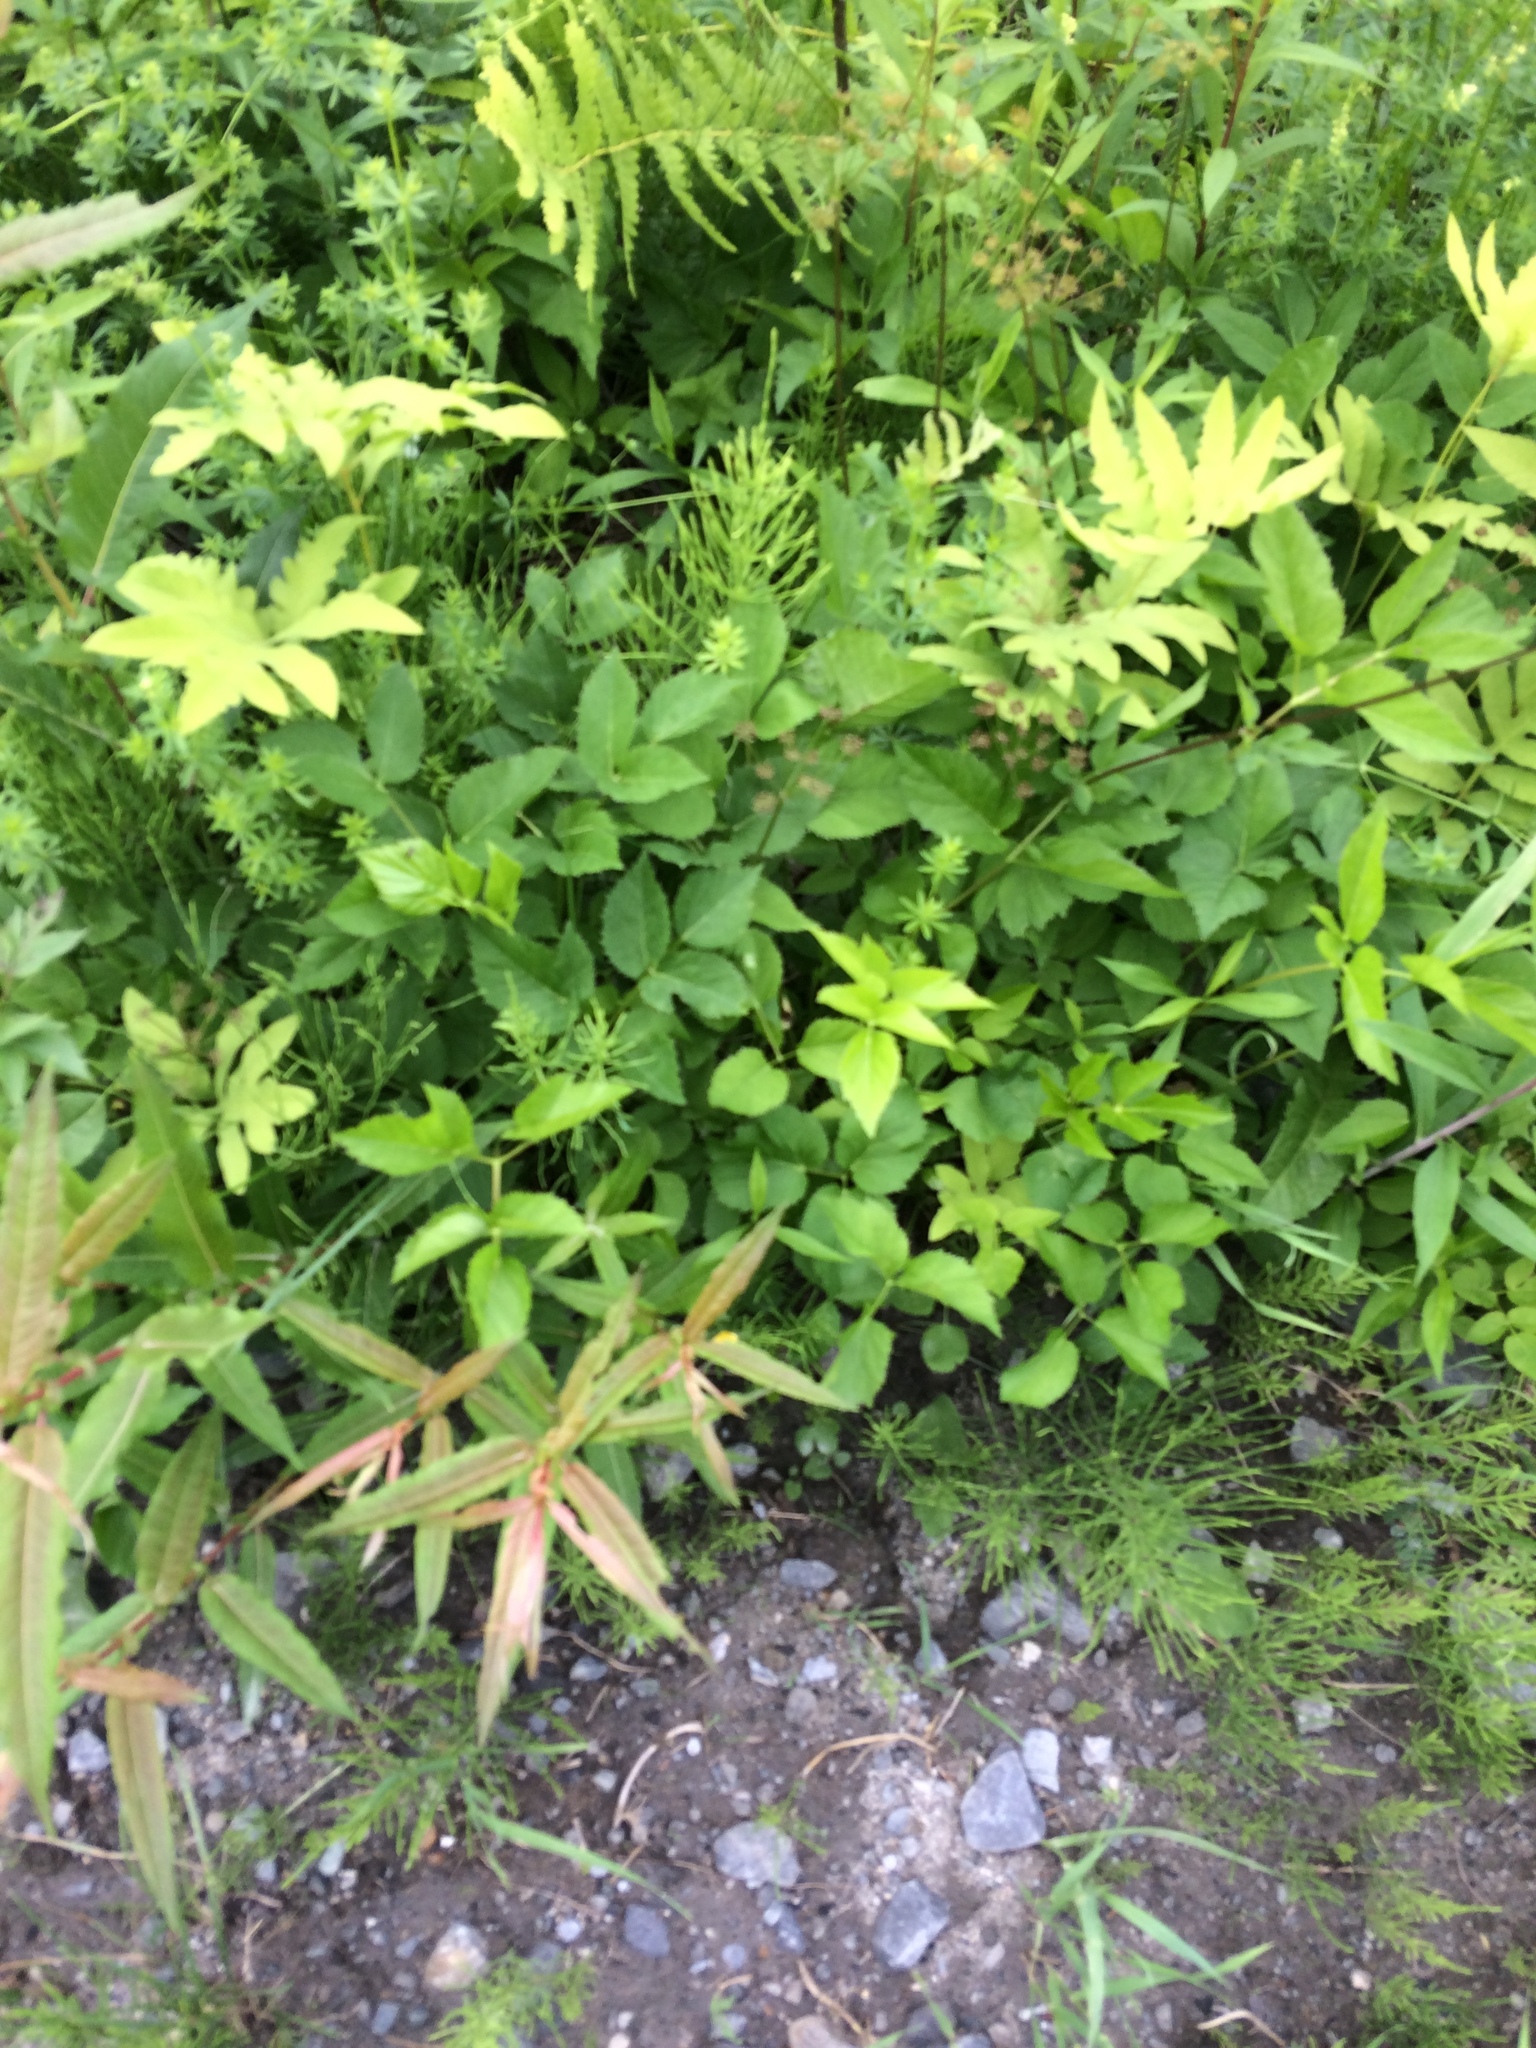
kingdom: Plantae
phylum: Tracheophyta
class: Polypodiopsida
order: Polypodiales
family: Onocleaceae
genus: Onoclea
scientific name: Onoclea sensibilis
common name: Sensitive fern
